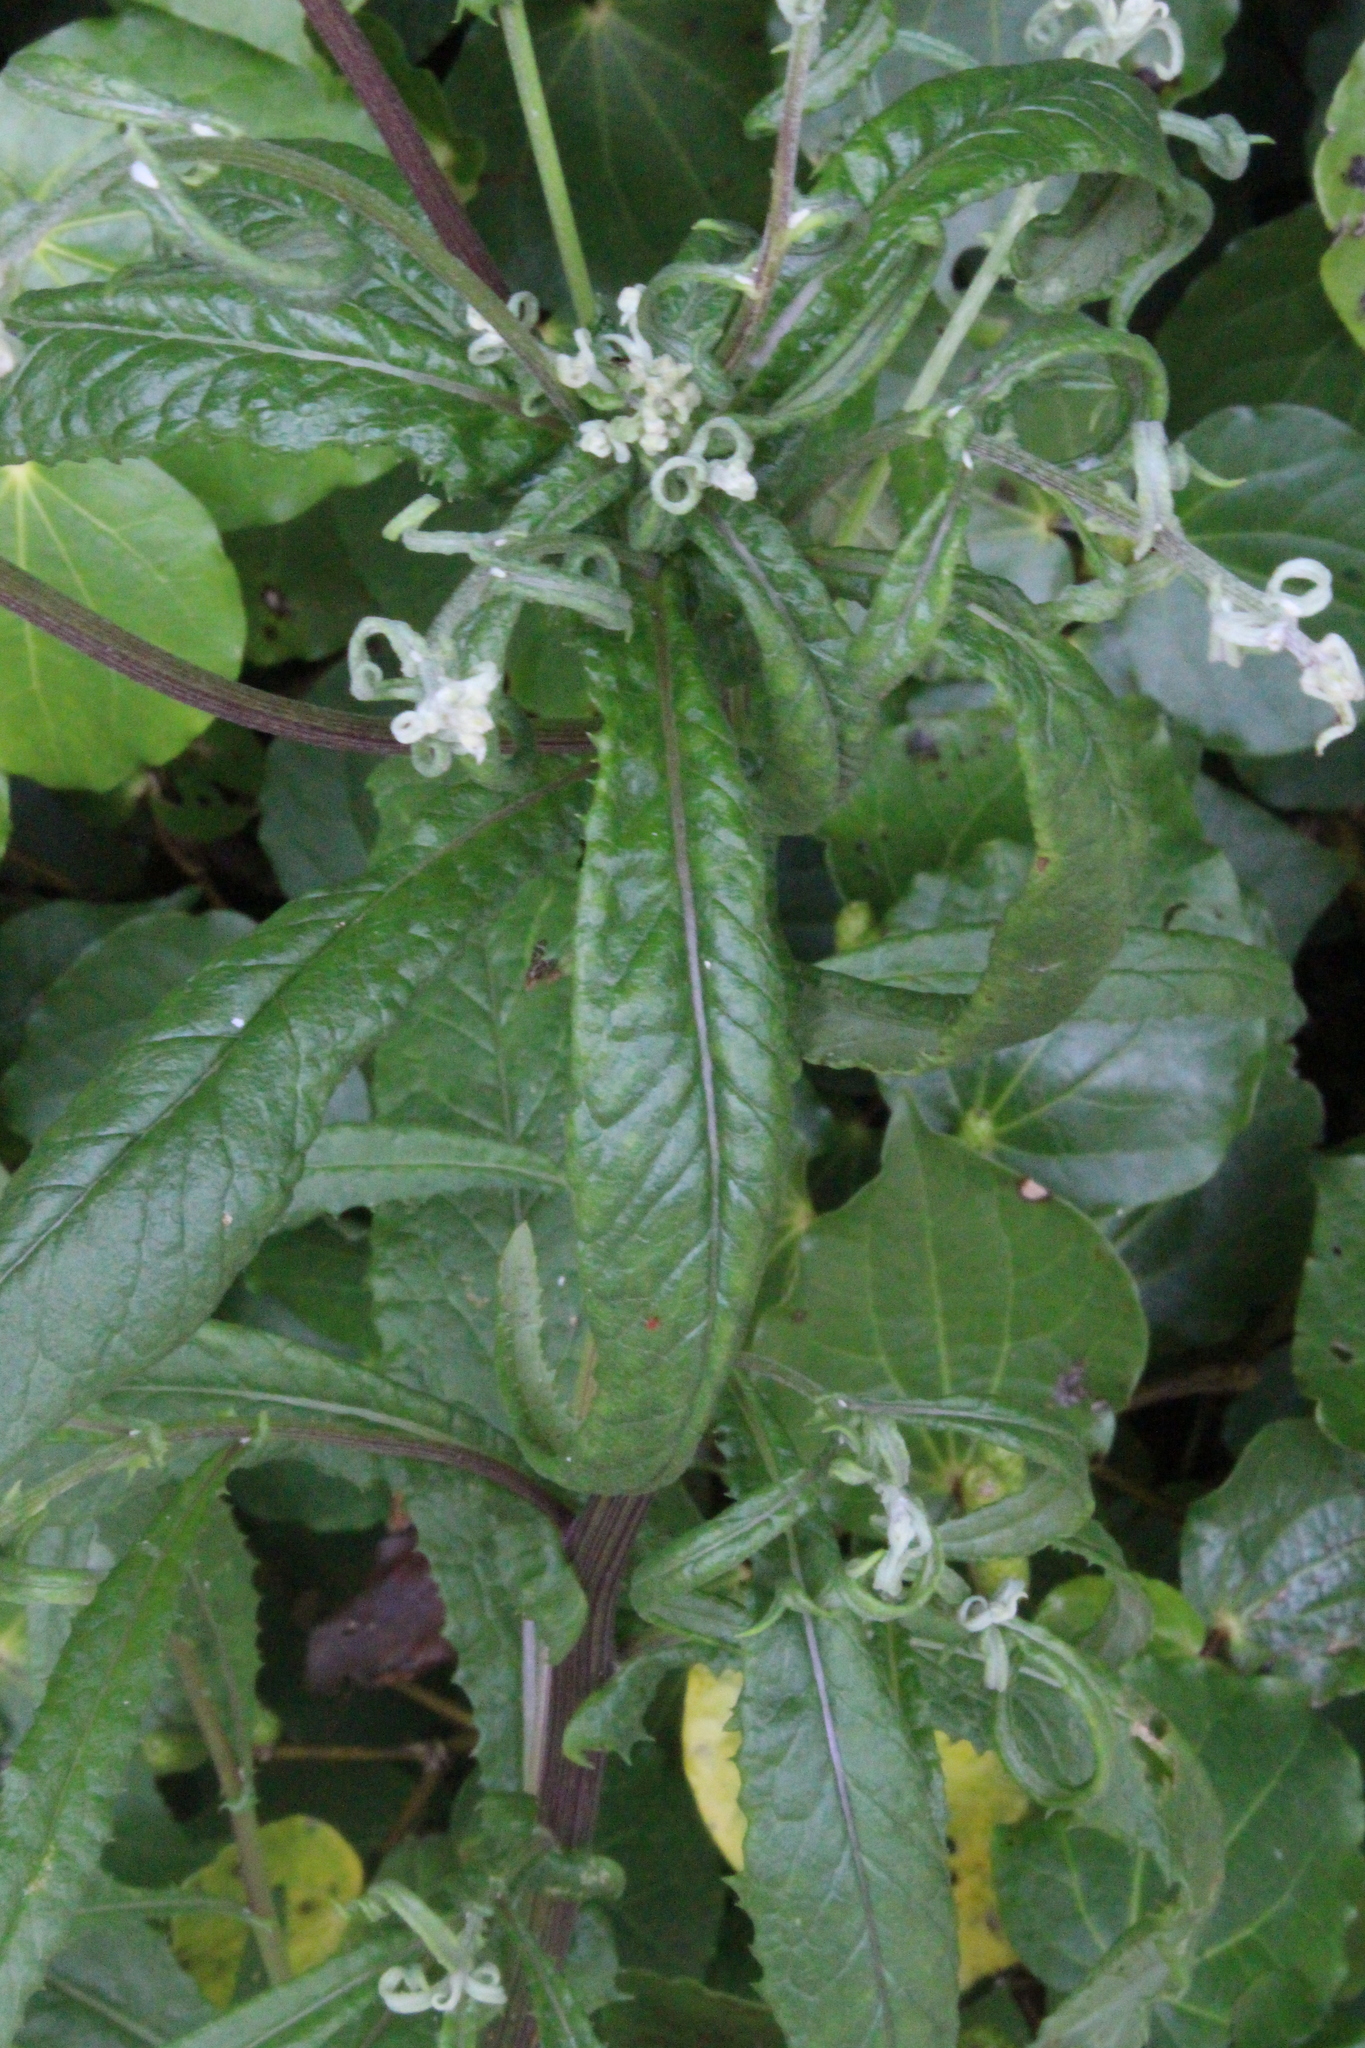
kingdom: Plantae
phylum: Tracheophyta
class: Magnoliopsida
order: Asterales
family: Asteraceae
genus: Senecio
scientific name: Senecio minimus
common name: Toothed fireweed
